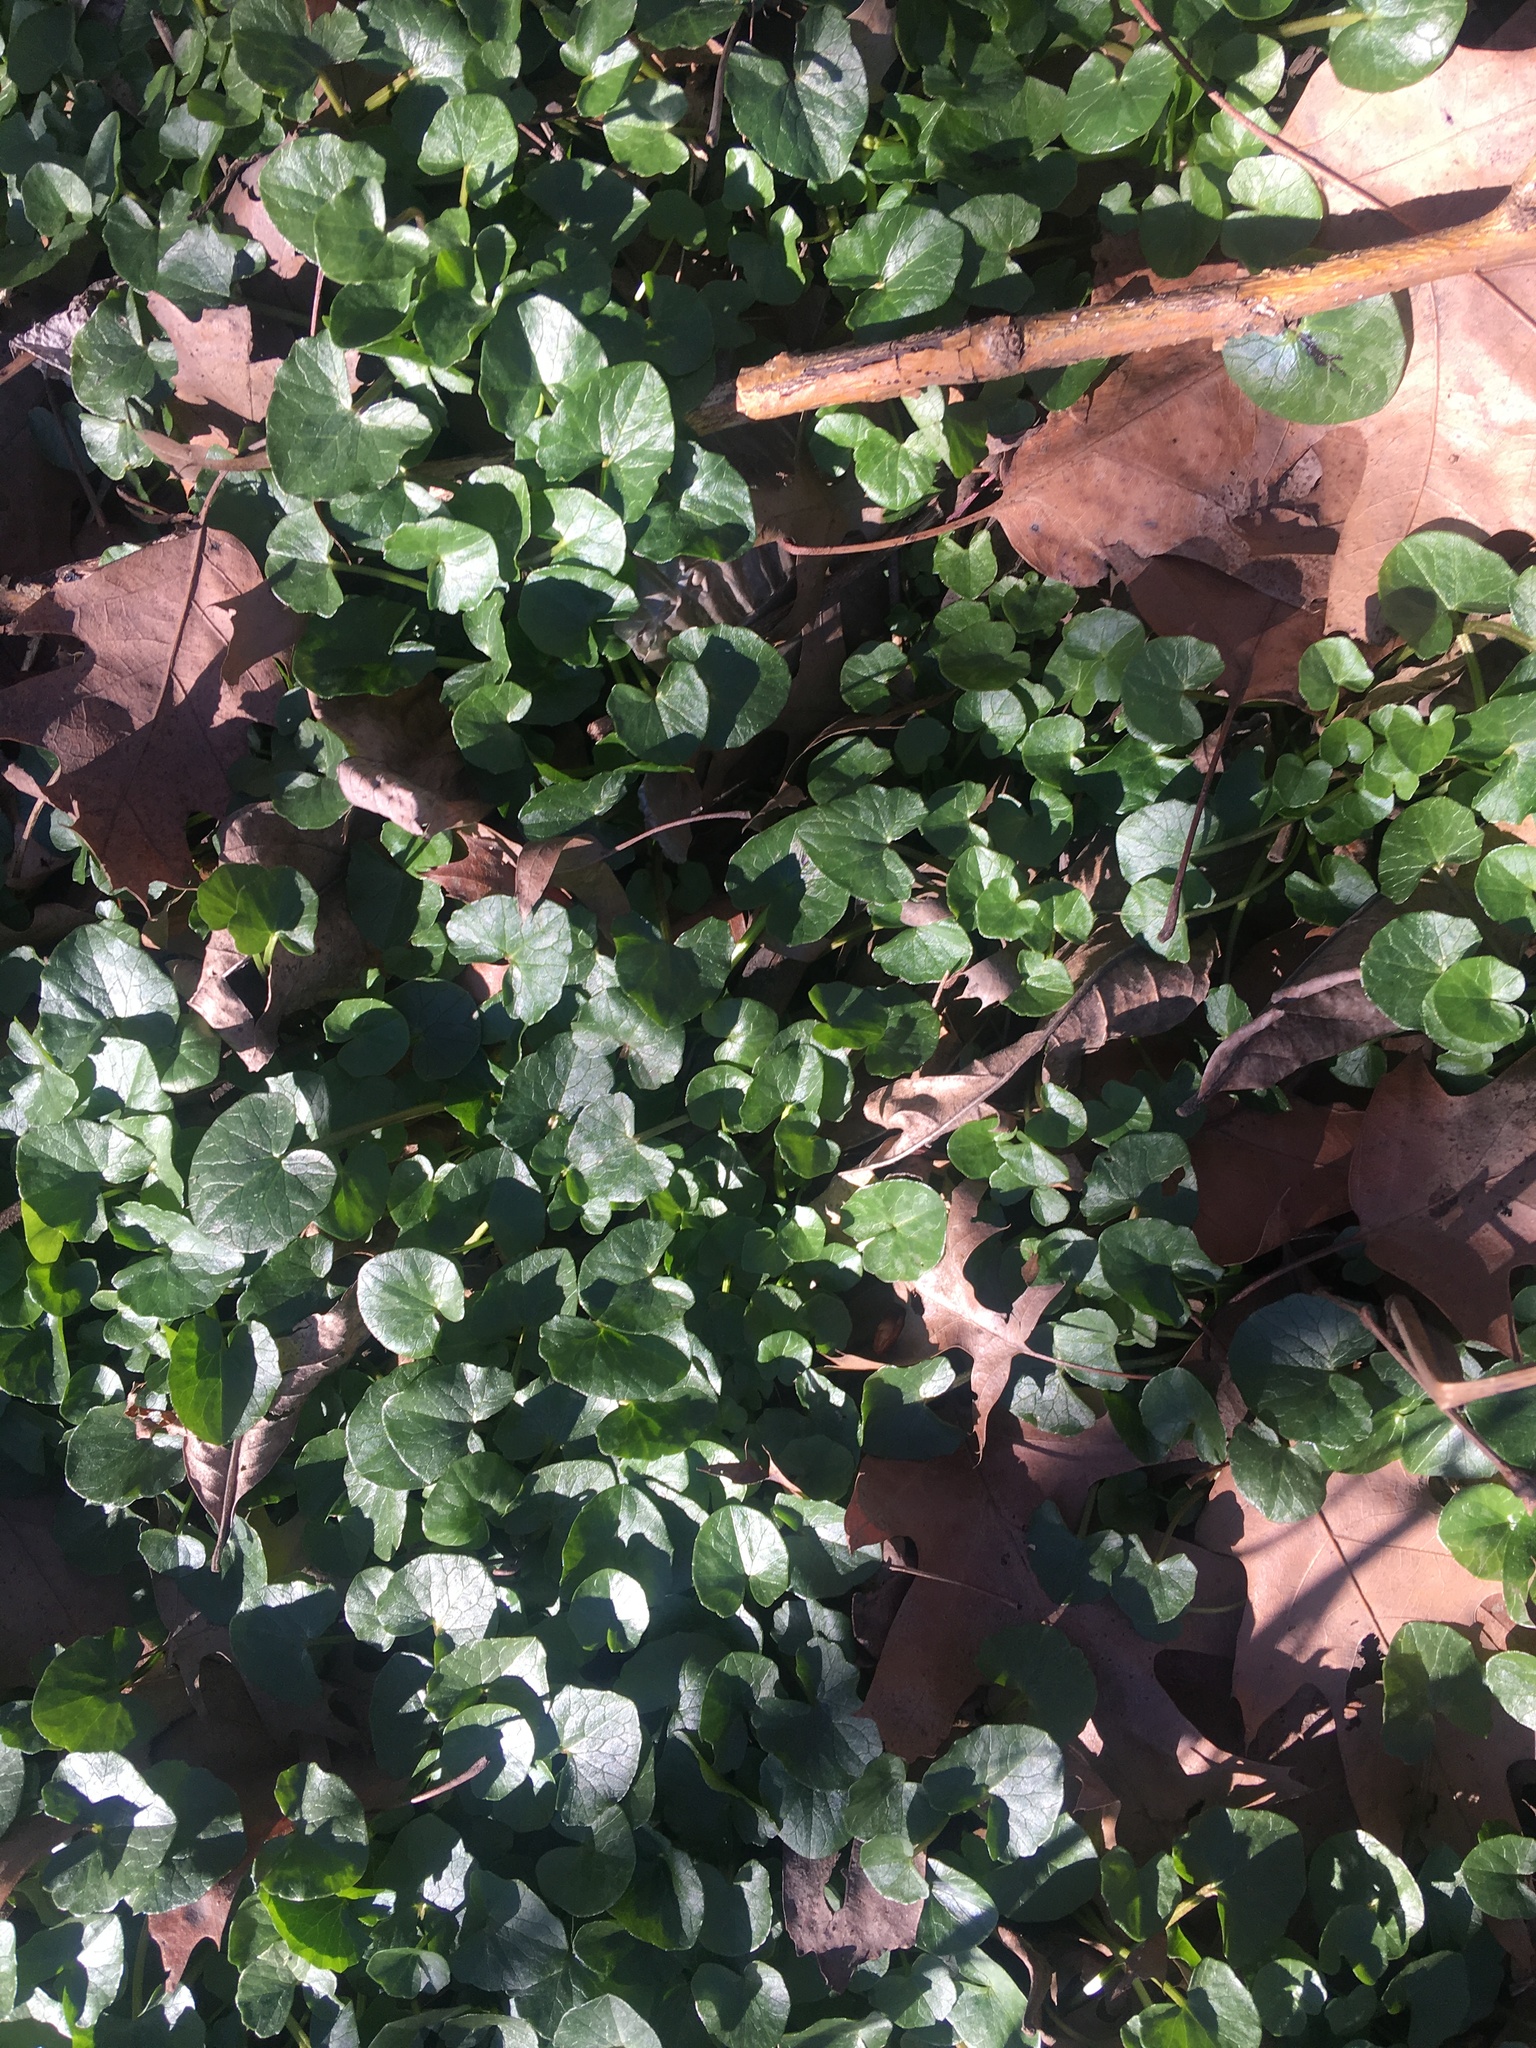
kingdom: Plantae
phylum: Tracheophyta
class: Magnoliopsida
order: Ranunculales
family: Ranunculaceae
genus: Ficaria
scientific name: Ficaria verna
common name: Lesser celandine
